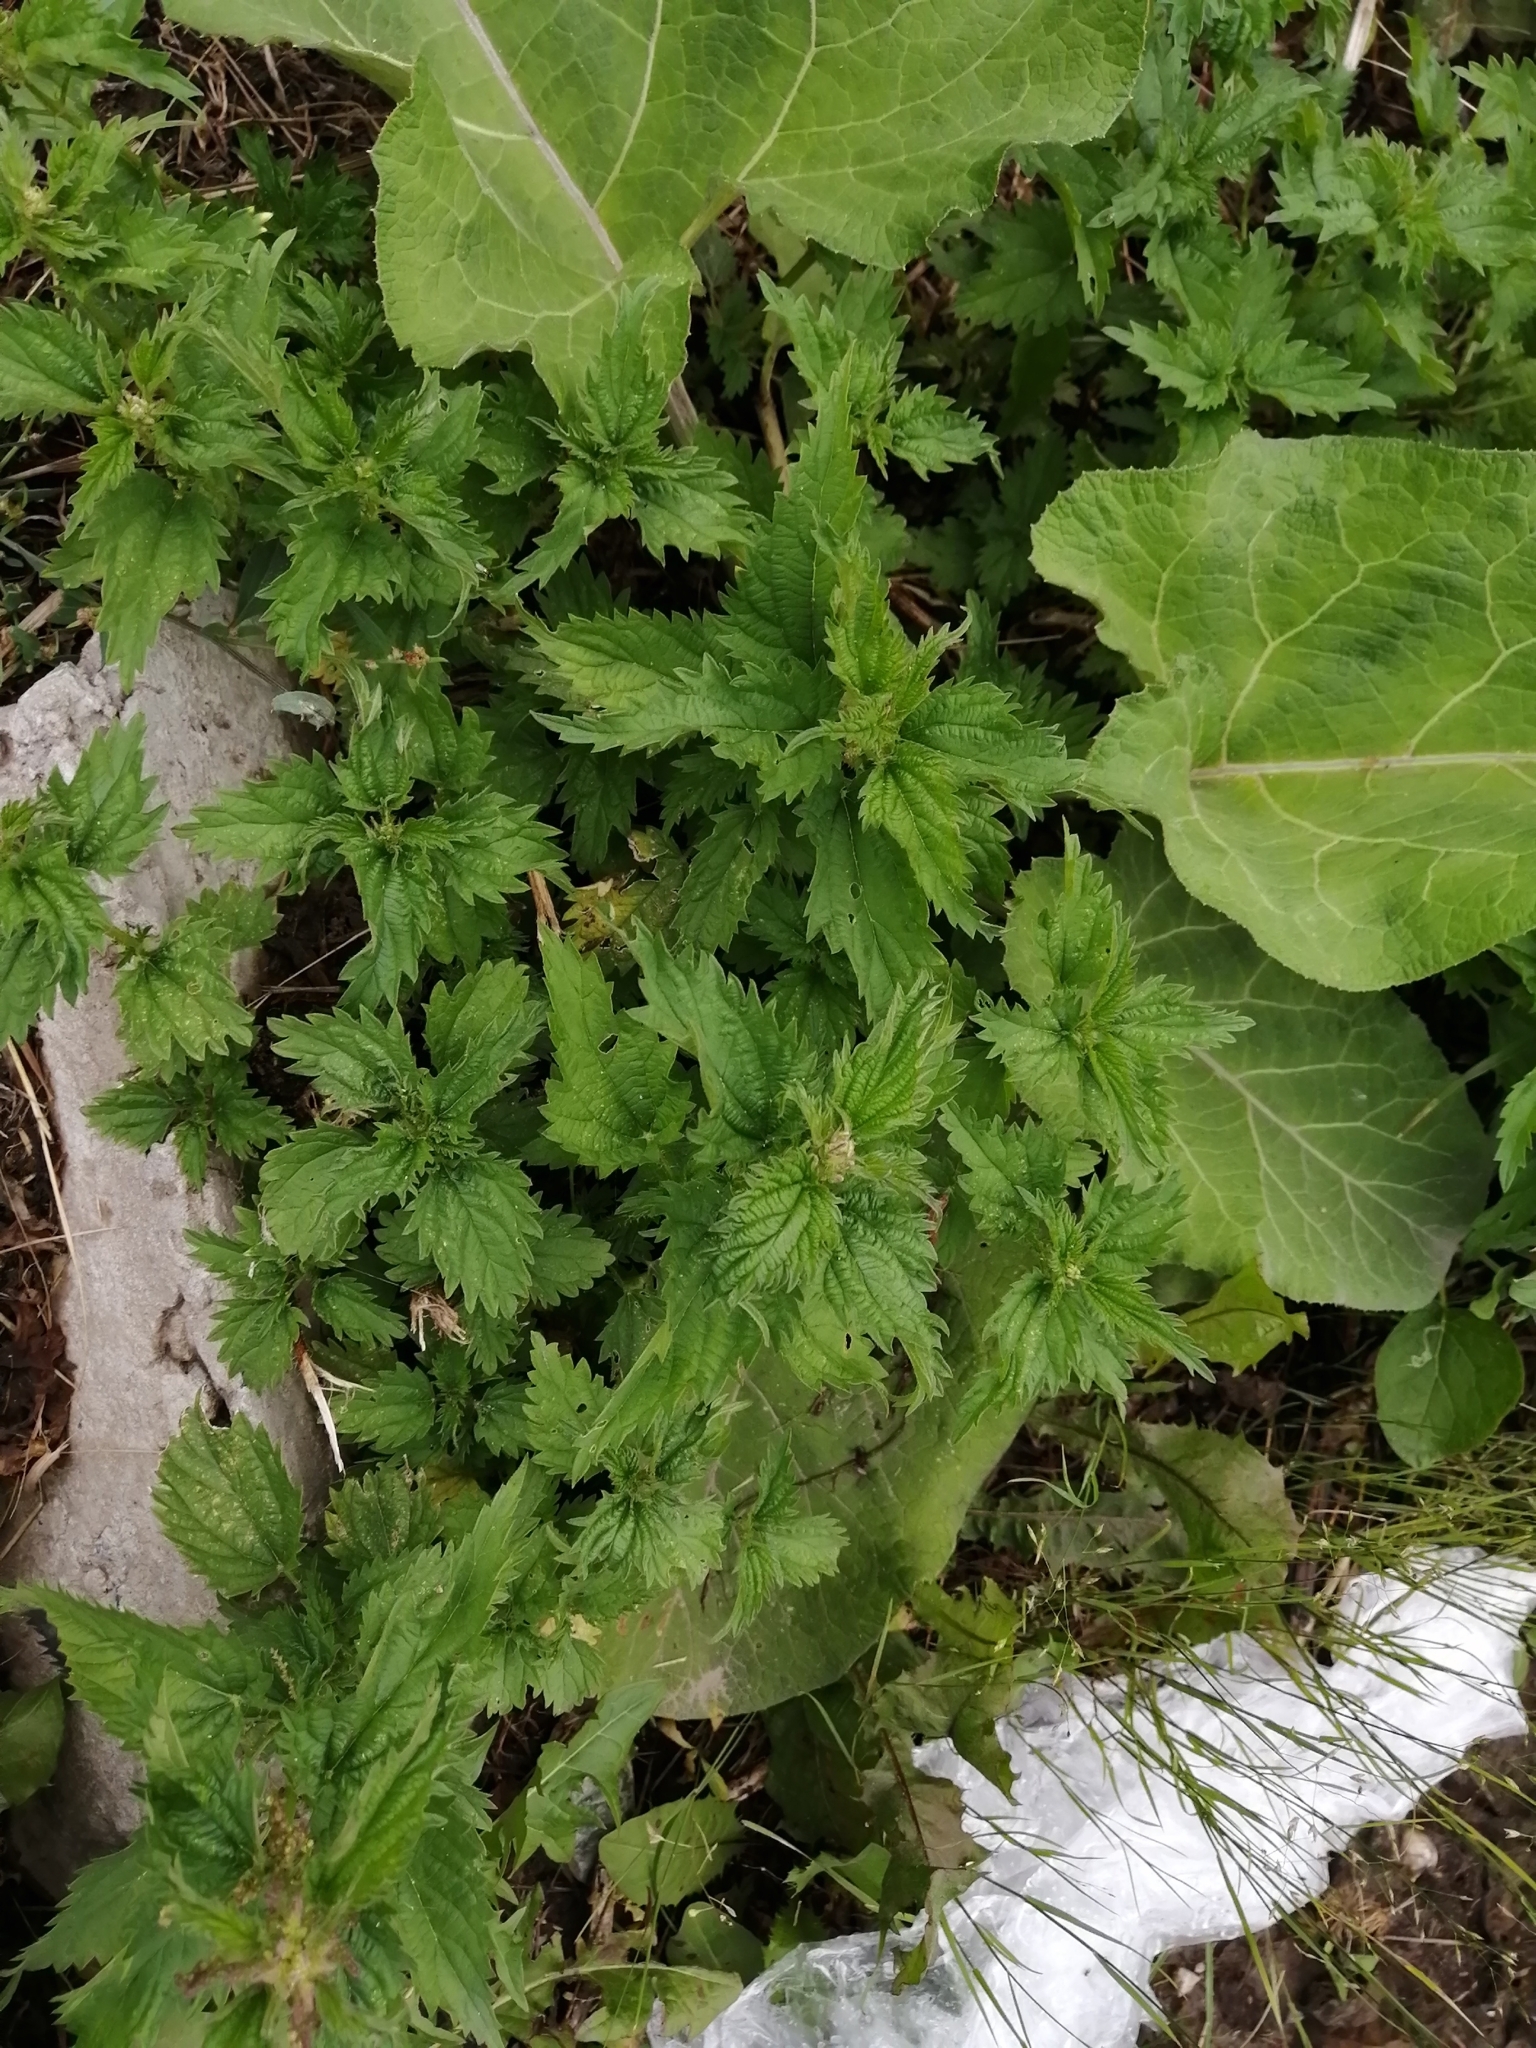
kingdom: Plantae
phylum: Tracheophyta
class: Magnoliopsida
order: Rosales
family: Urticaceae
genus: Urtica
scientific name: Urtica dioica
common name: Common nettle
